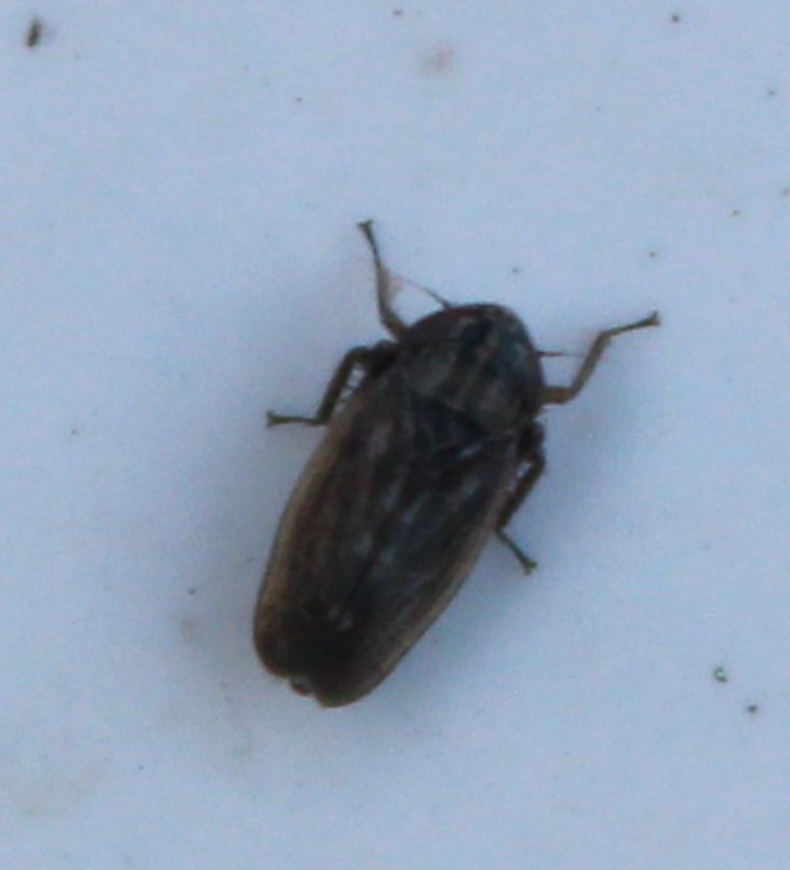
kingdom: Animalia
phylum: Arthropoda
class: Insecta
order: Hemiptera
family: Cicadellidae
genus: Euscelis
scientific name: Euscelis incisa
